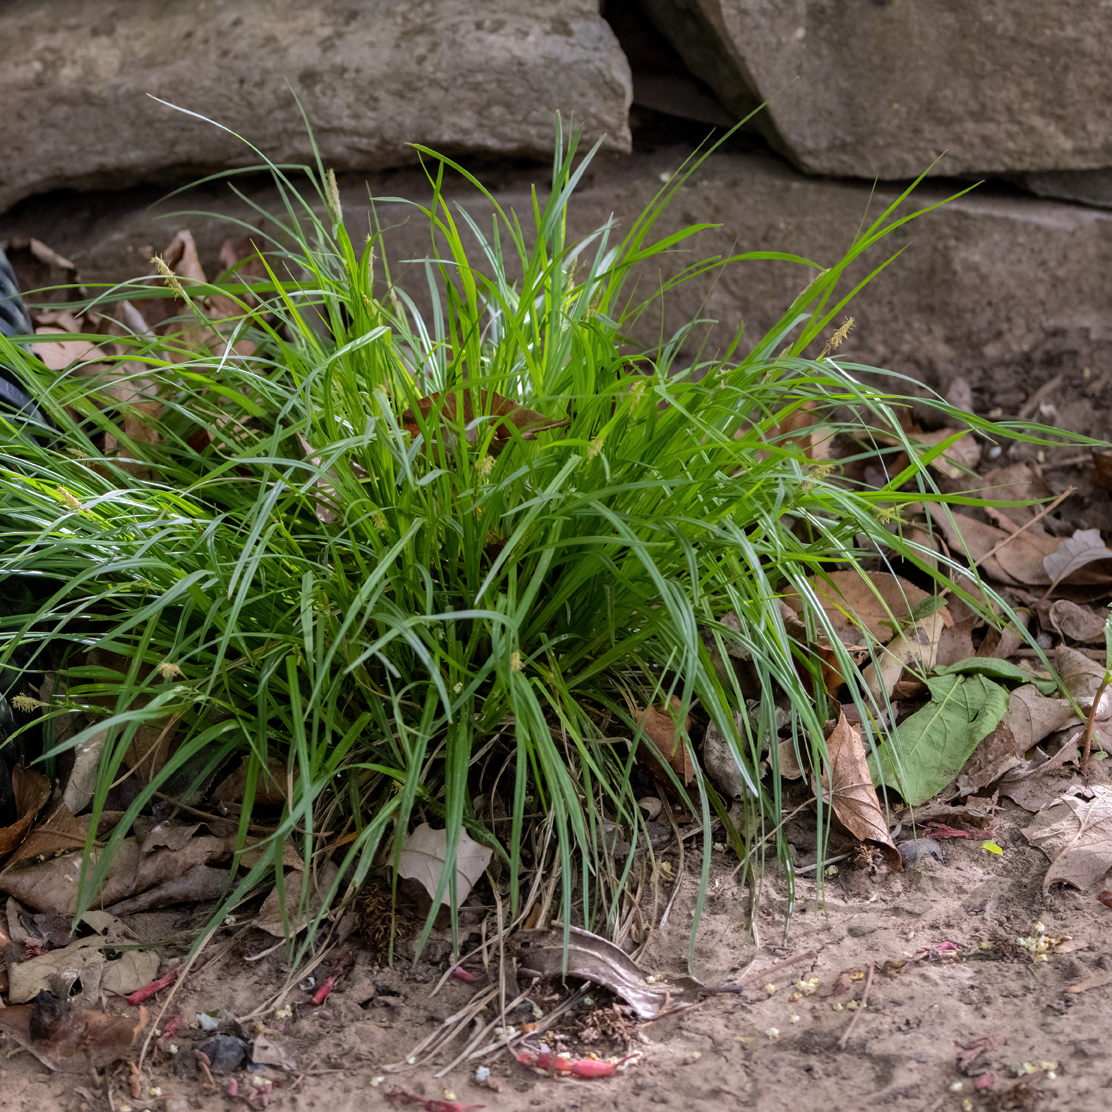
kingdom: Plantae
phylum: Tracheophyta
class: Liliopsida
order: Poales
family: Cyperaceae
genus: Carex
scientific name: Carex blanda
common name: Bland sedge
